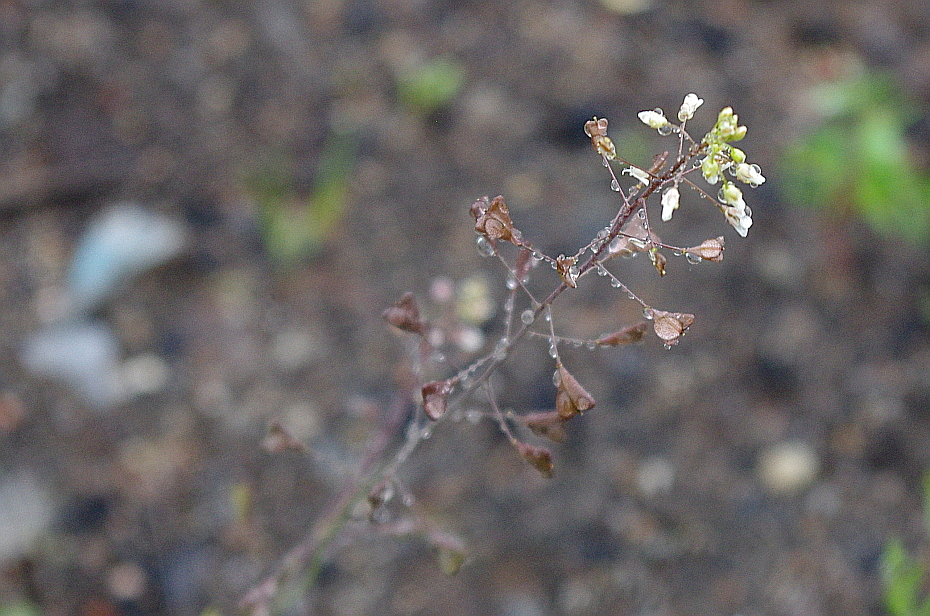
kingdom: Plantae
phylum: Tracheophyta
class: Magnoliopsida
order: Brassicales
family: Brassicaceae
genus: Capsella
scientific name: Capsella bursa-pastoris
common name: Shepherd's purse
